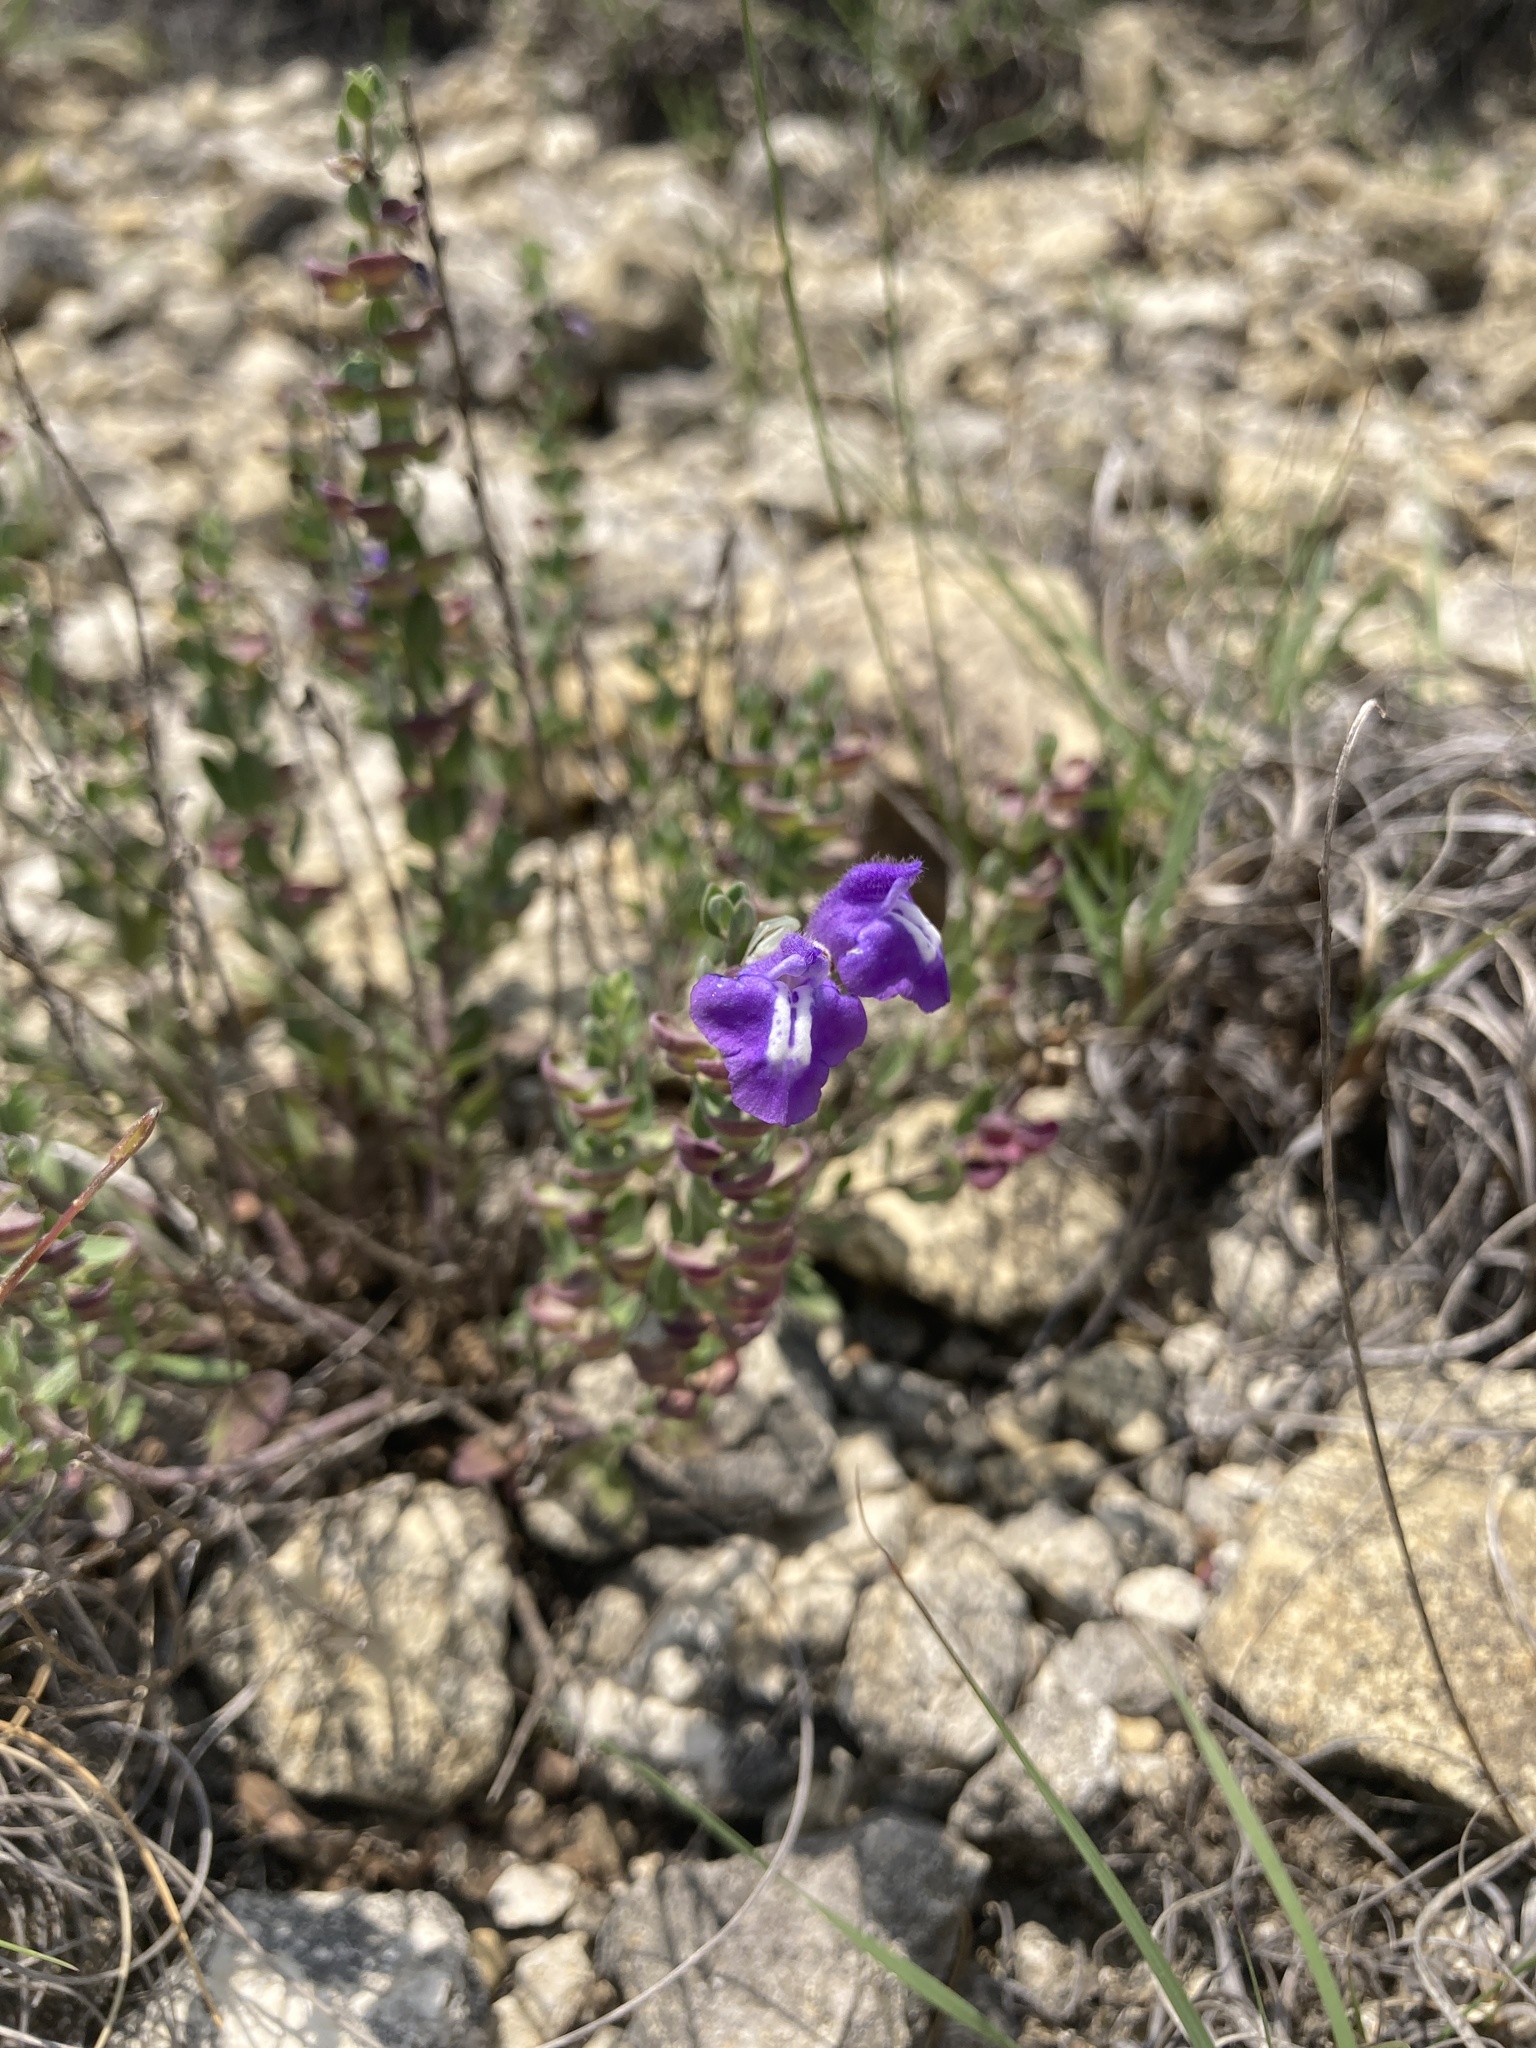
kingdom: Plantae
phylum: Tracheophyta
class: Magnoliopsida
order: Lamiales
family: Lamiaceae
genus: Scutellaria
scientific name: Scutellaria wrightii
